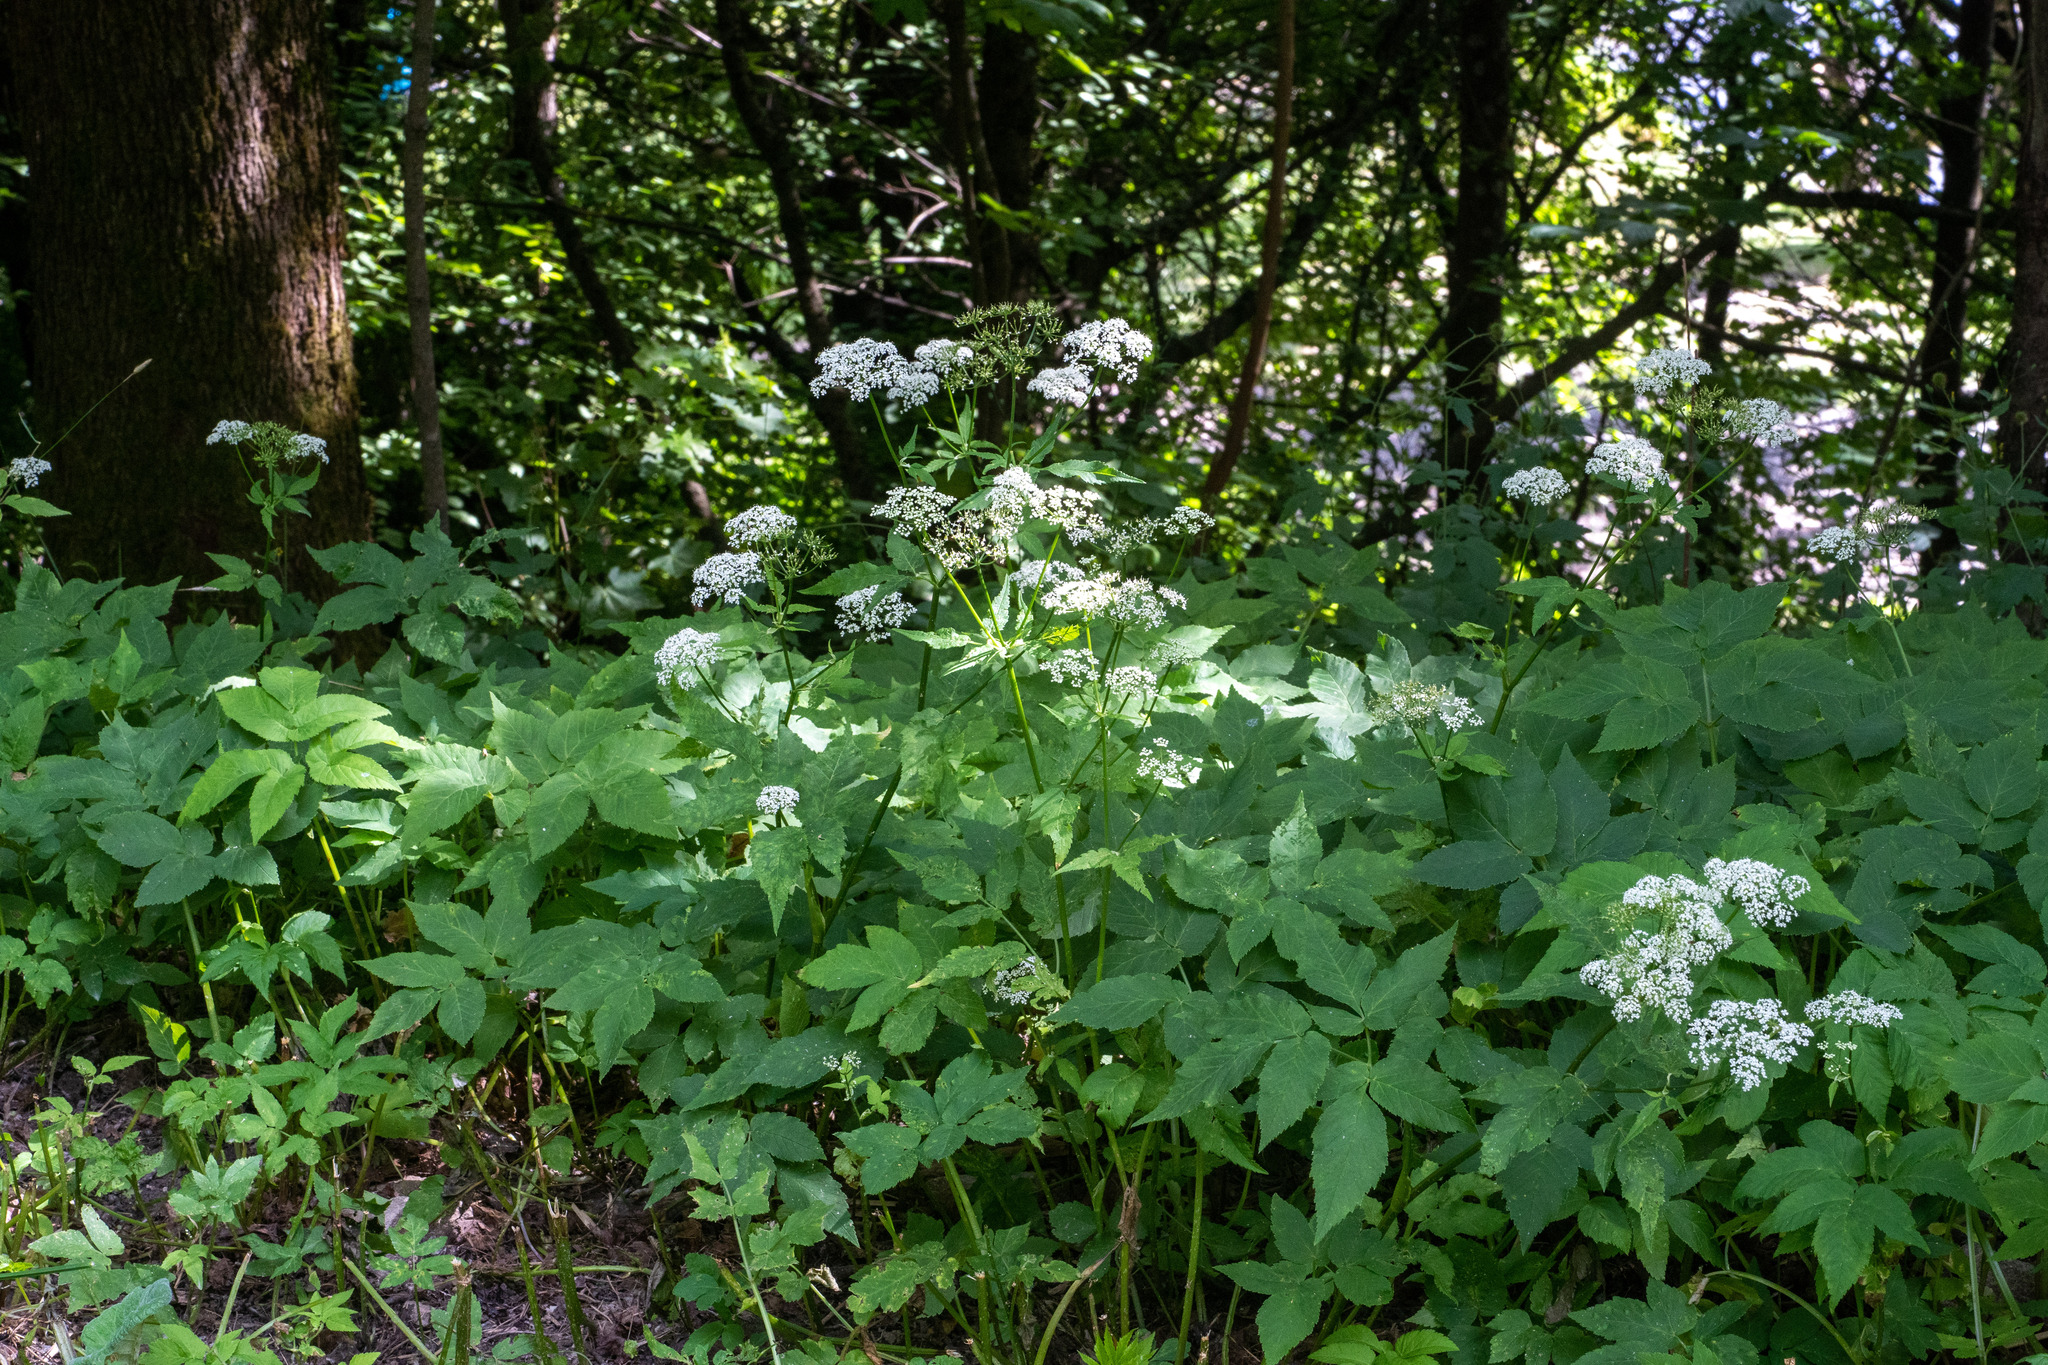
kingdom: Plantae
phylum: Tracheophyta
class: Magnoliopsida
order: Apiales
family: Apiaceae
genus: Aegopodium
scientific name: Aegopodium podagraria
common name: Ground-elder
